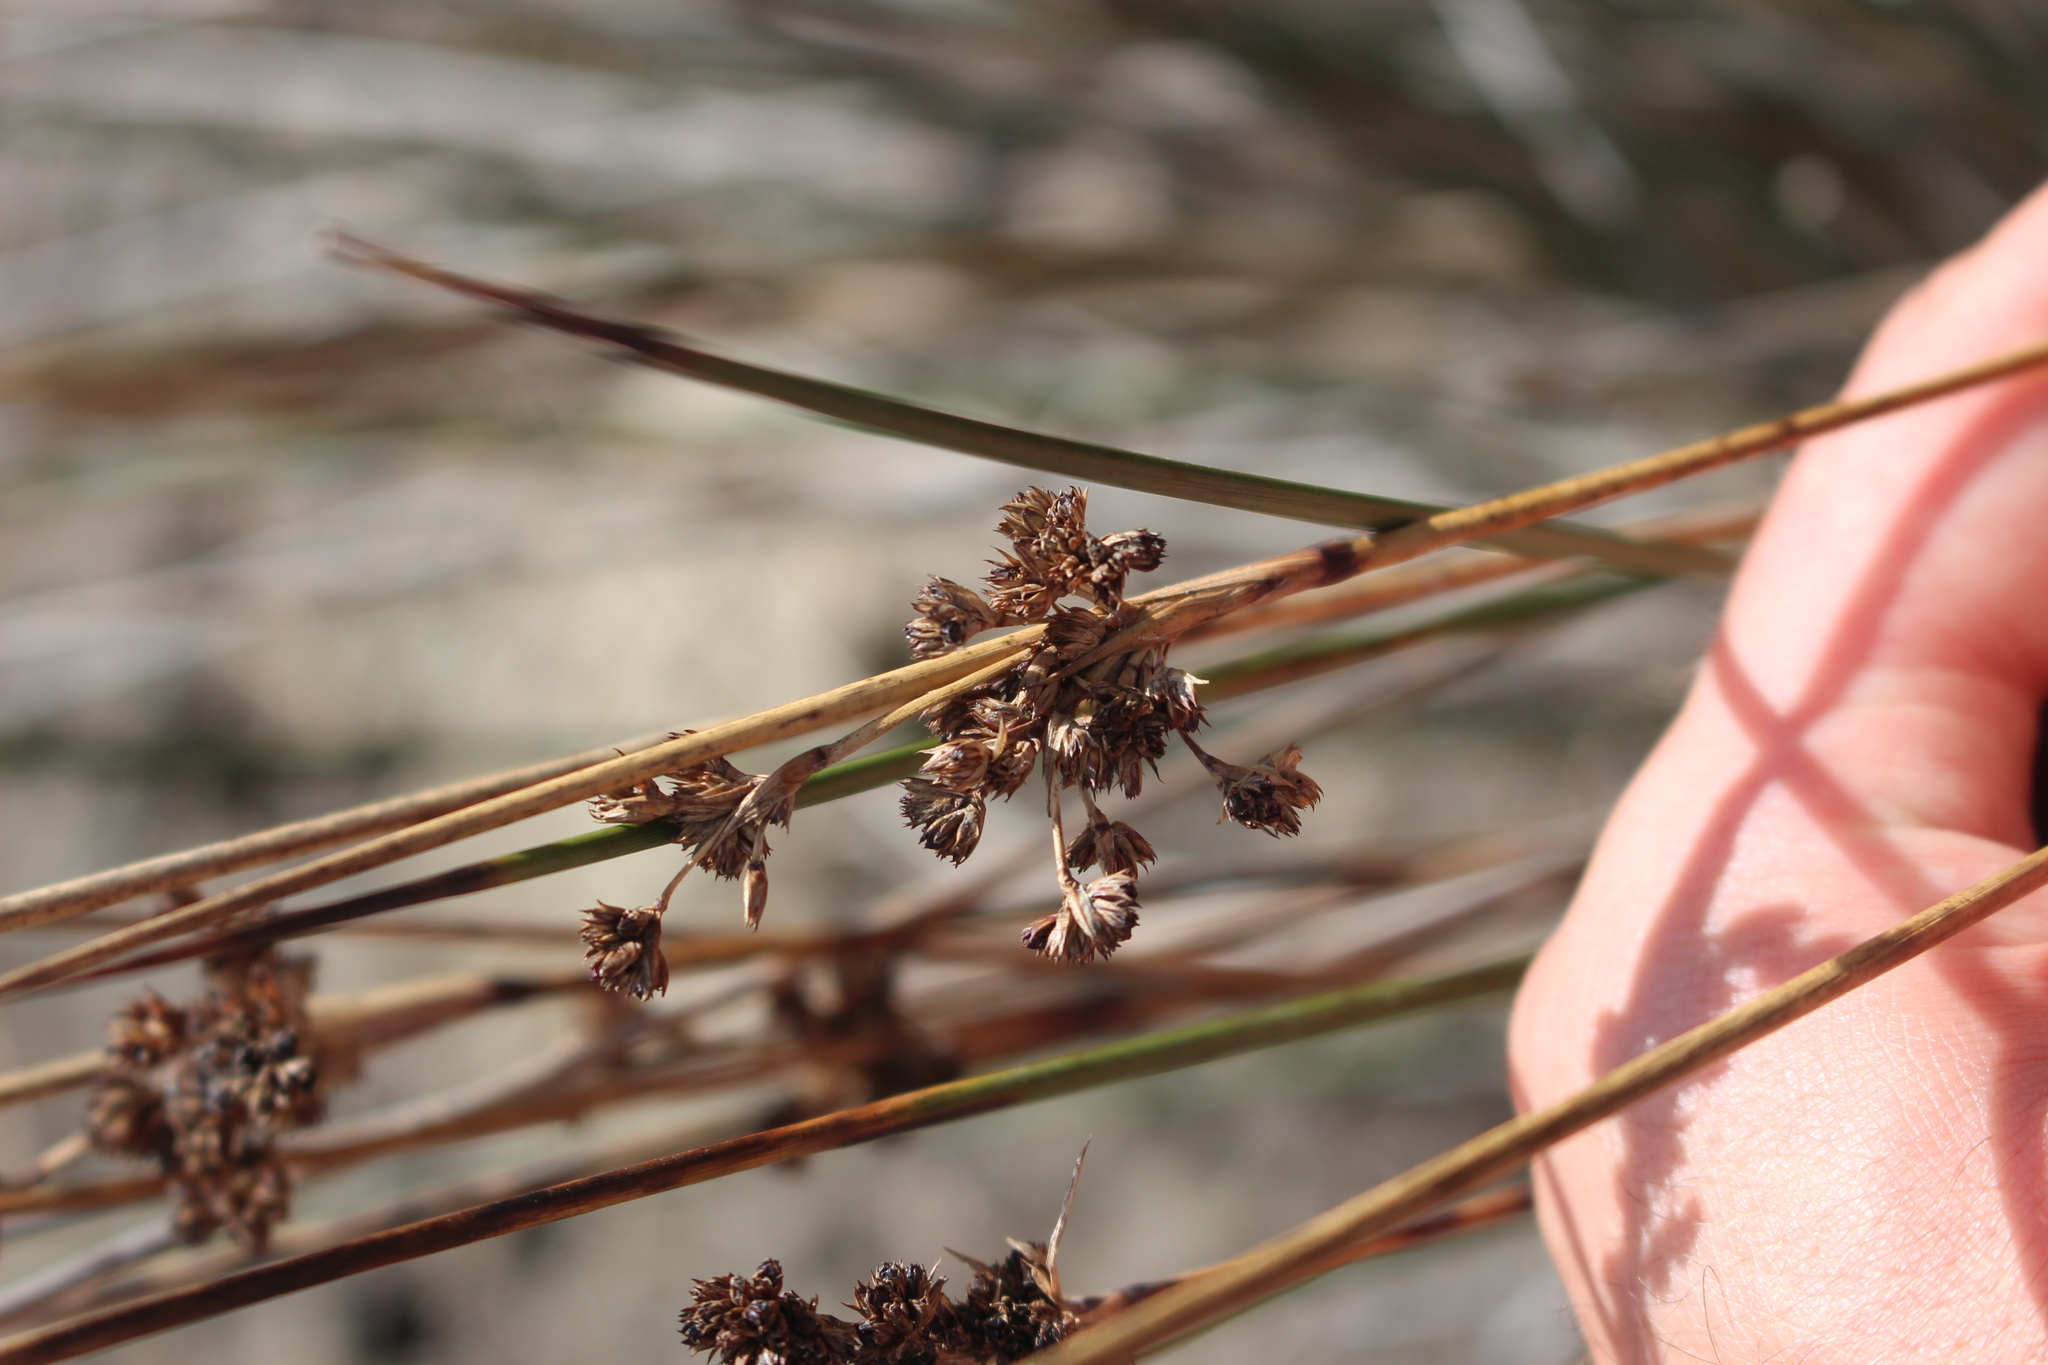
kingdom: Plantae
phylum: Tracheophyta
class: Liliopsida
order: Poales
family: Juncaceae
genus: Juncus
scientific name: Juncus kraussii
